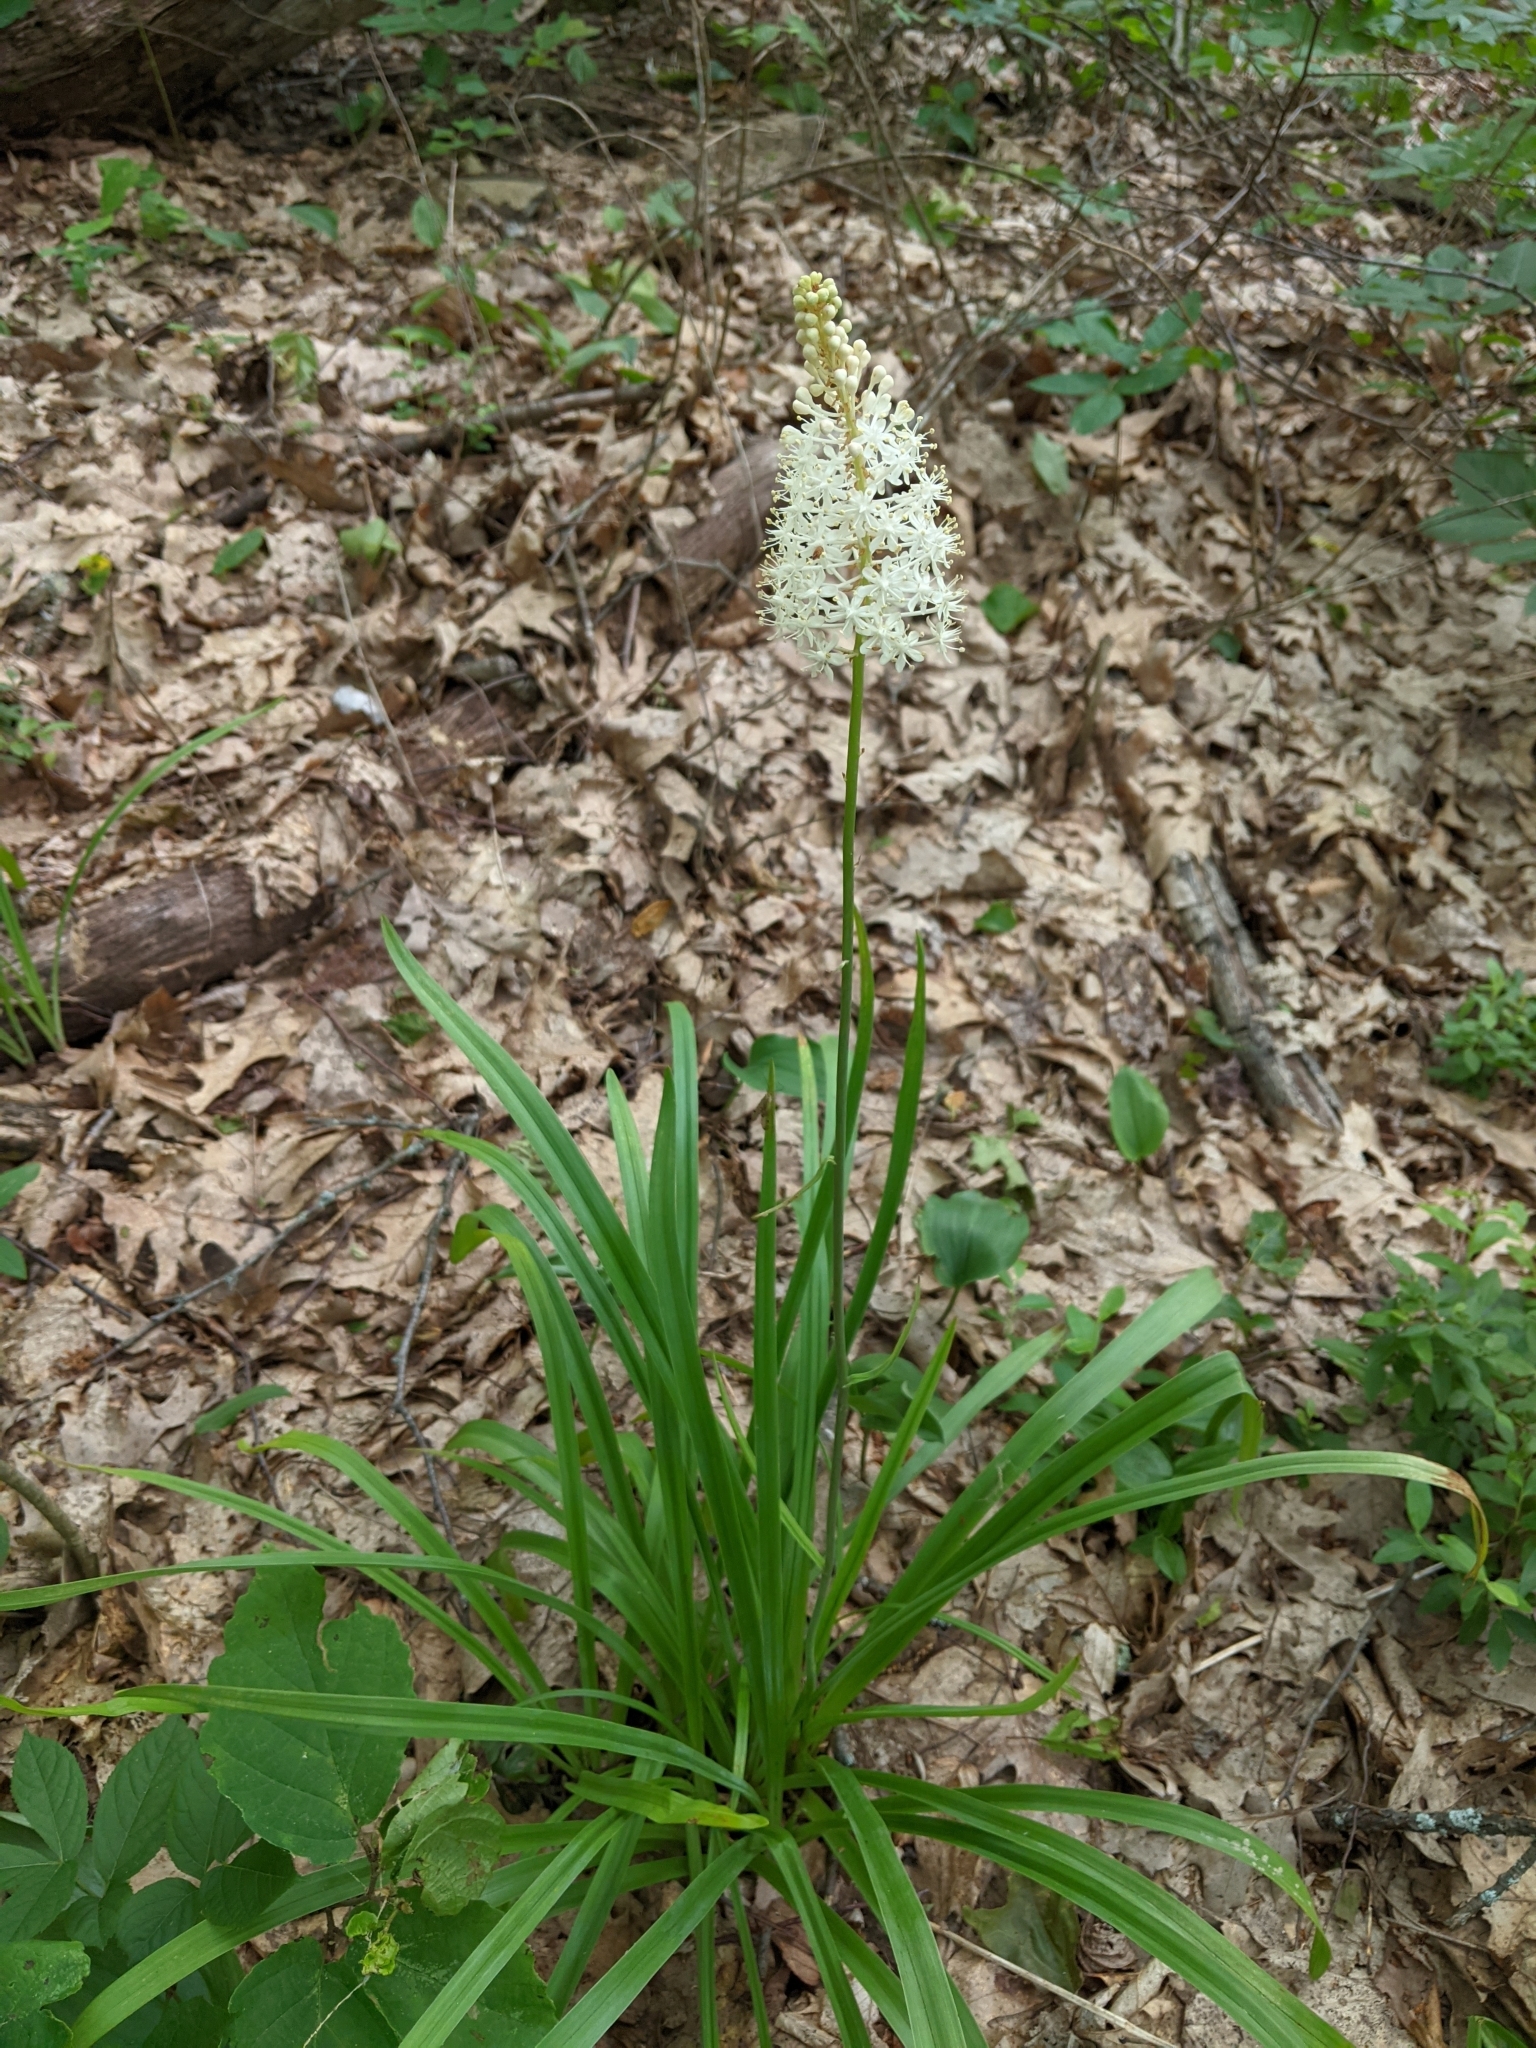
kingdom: Plantae
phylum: Tracheophyta
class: Liliopsida
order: Liliales
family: Melanthiaceae
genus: Amianthium
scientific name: Amianthium muscitoxicum
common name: Fly-poison
